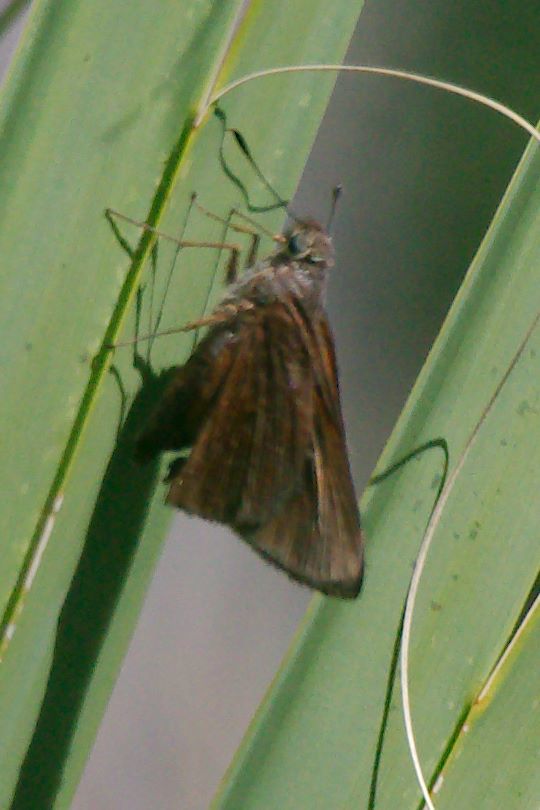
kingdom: Animalia
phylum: Arthropoda
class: Insecta
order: Lepidoptera
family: Hesperiidae
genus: Asbolis
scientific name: Asbolis capucinus
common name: Monk skipper
